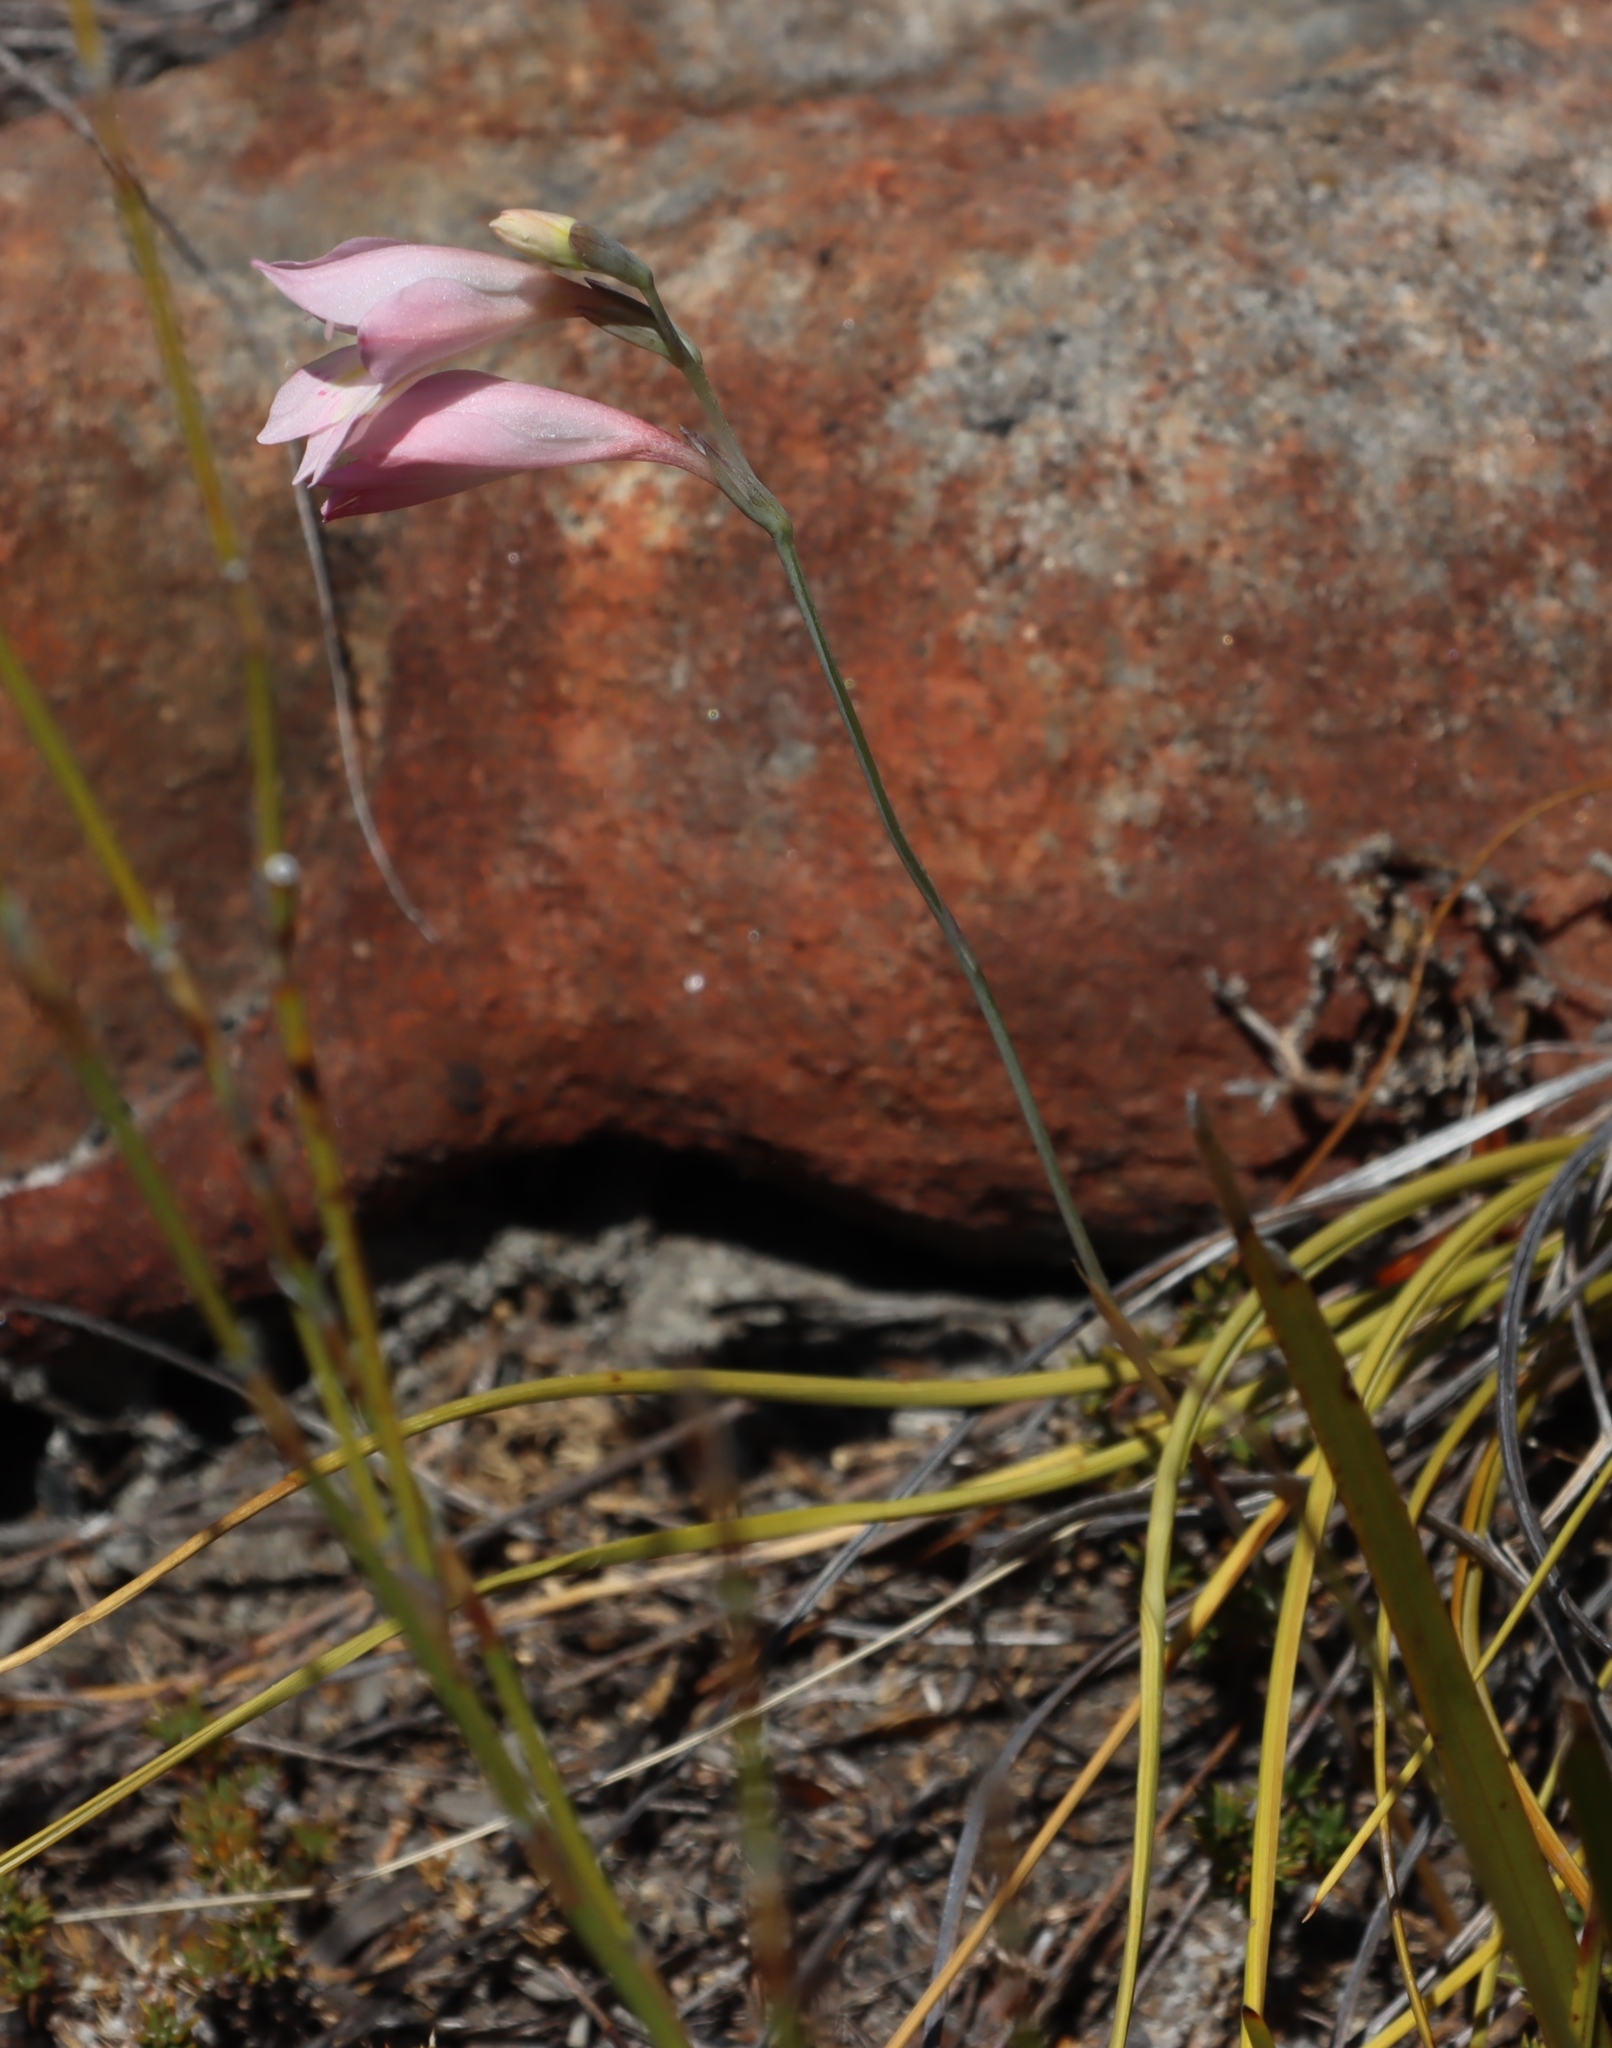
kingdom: Plantae
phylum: Tracheophyta
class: Liliopsida
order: Asparagales
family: Iridaceae
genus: Gladiolus
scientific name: Gladiolus brevifolius
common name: March pypie
